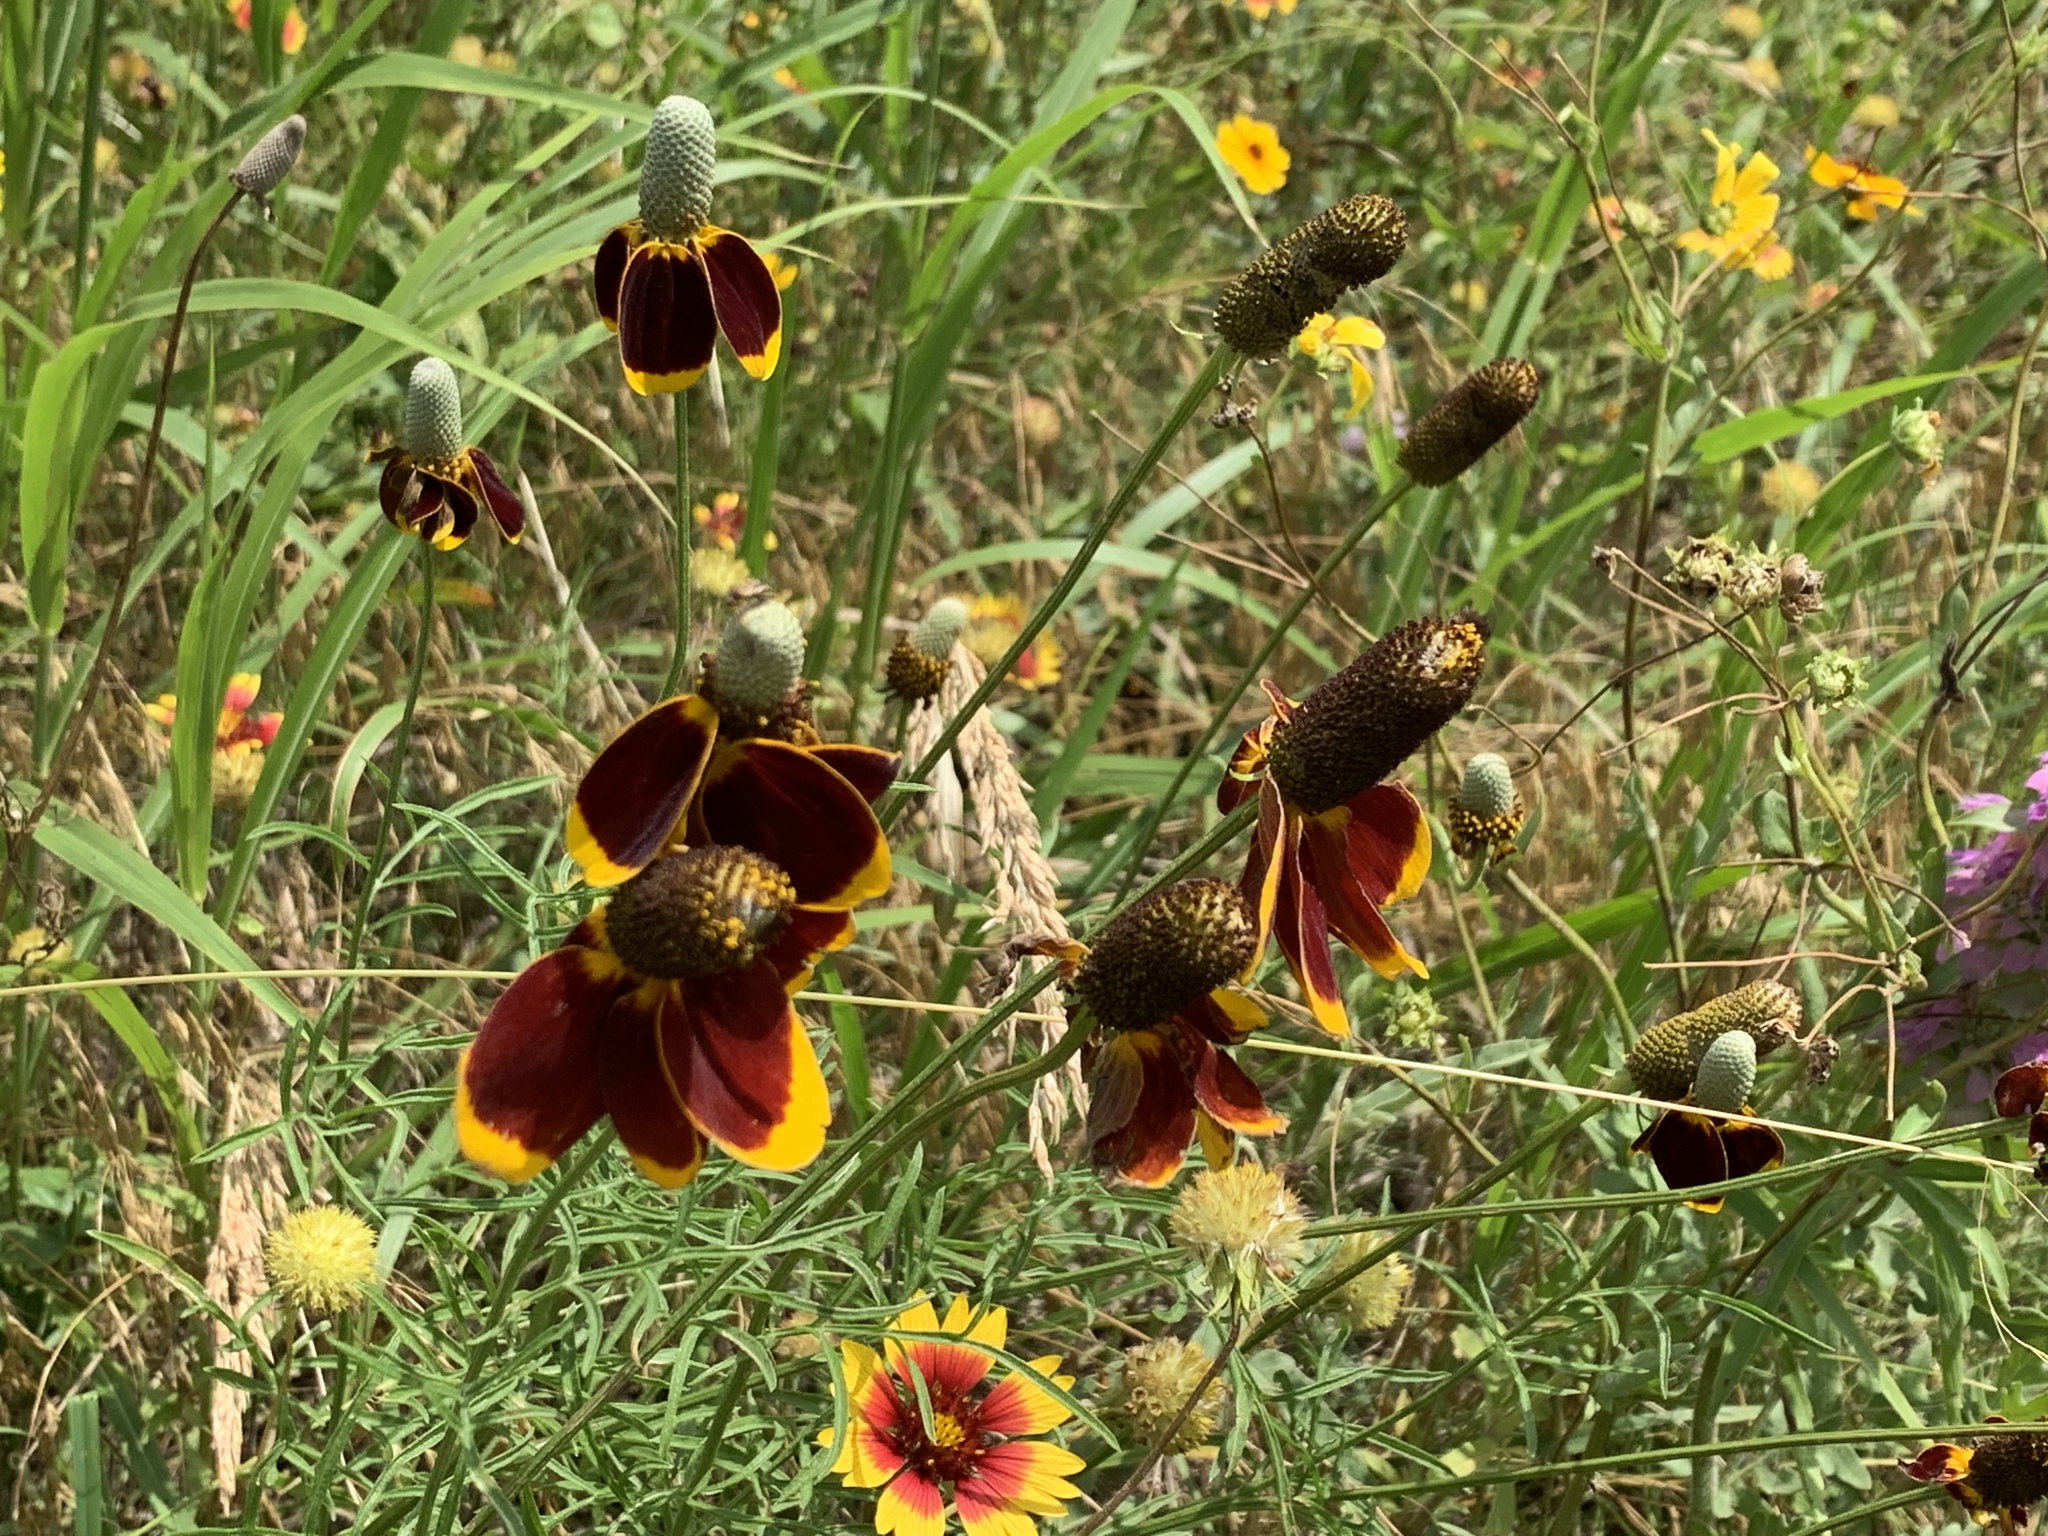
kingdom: Plantae
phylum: Tracheophyta
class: Magnoliopsida
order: Asterales
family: Asteraceae
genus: Ratibida
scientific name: Ratibida columnifera
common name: Prairie coneflower
